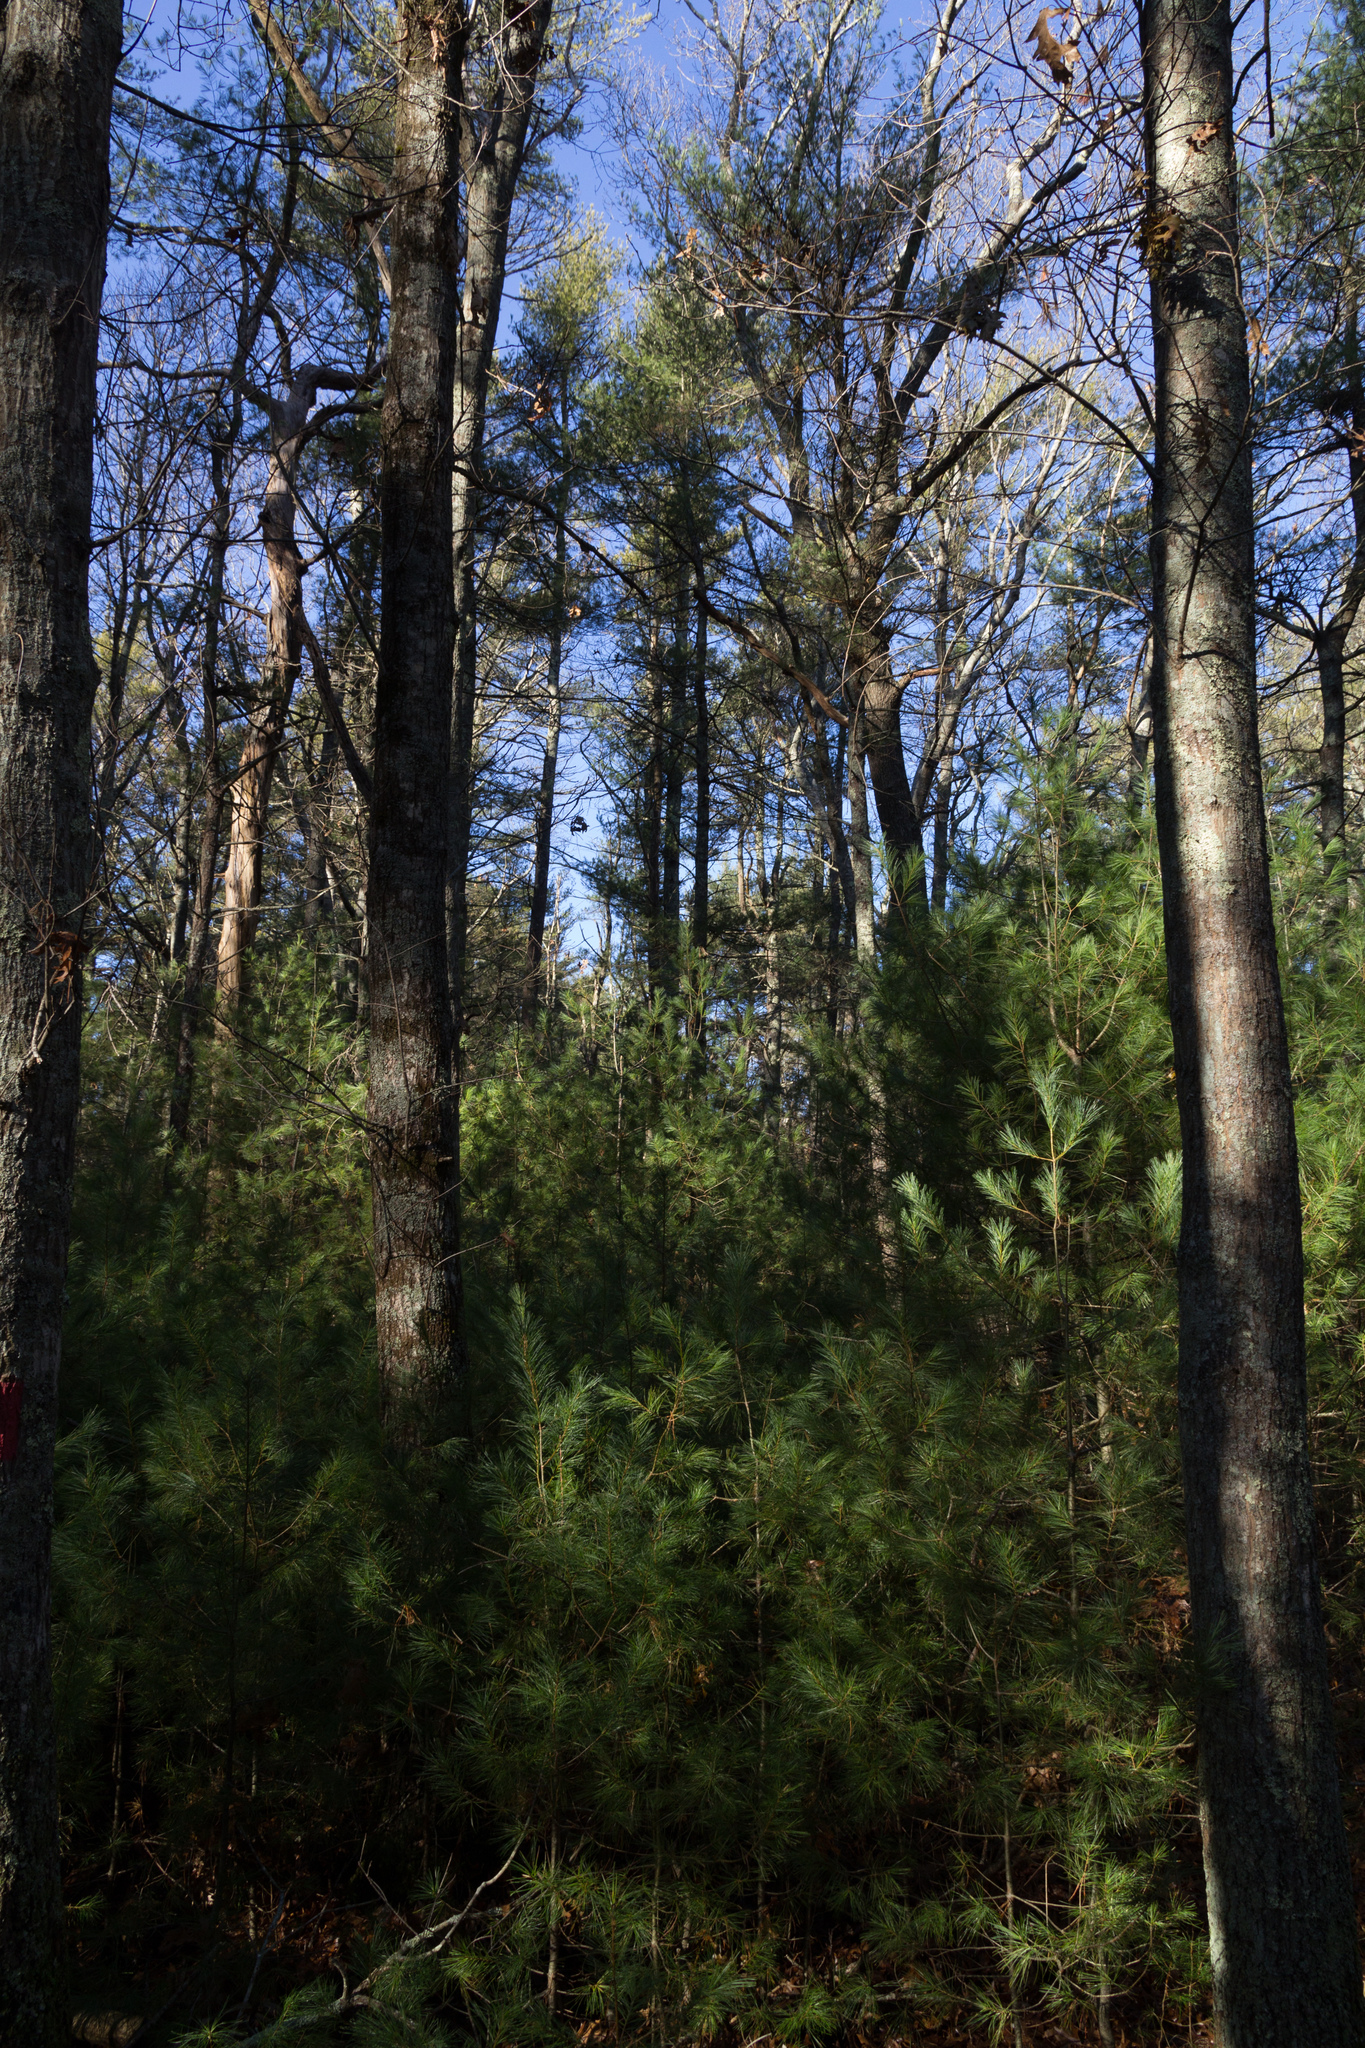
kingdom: Plantae
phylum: Tracheophyta
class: Pinopsida
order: Pinales
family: Pinaceae
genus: Pinus
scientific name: Pinus strobus
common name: Weymouth pine
